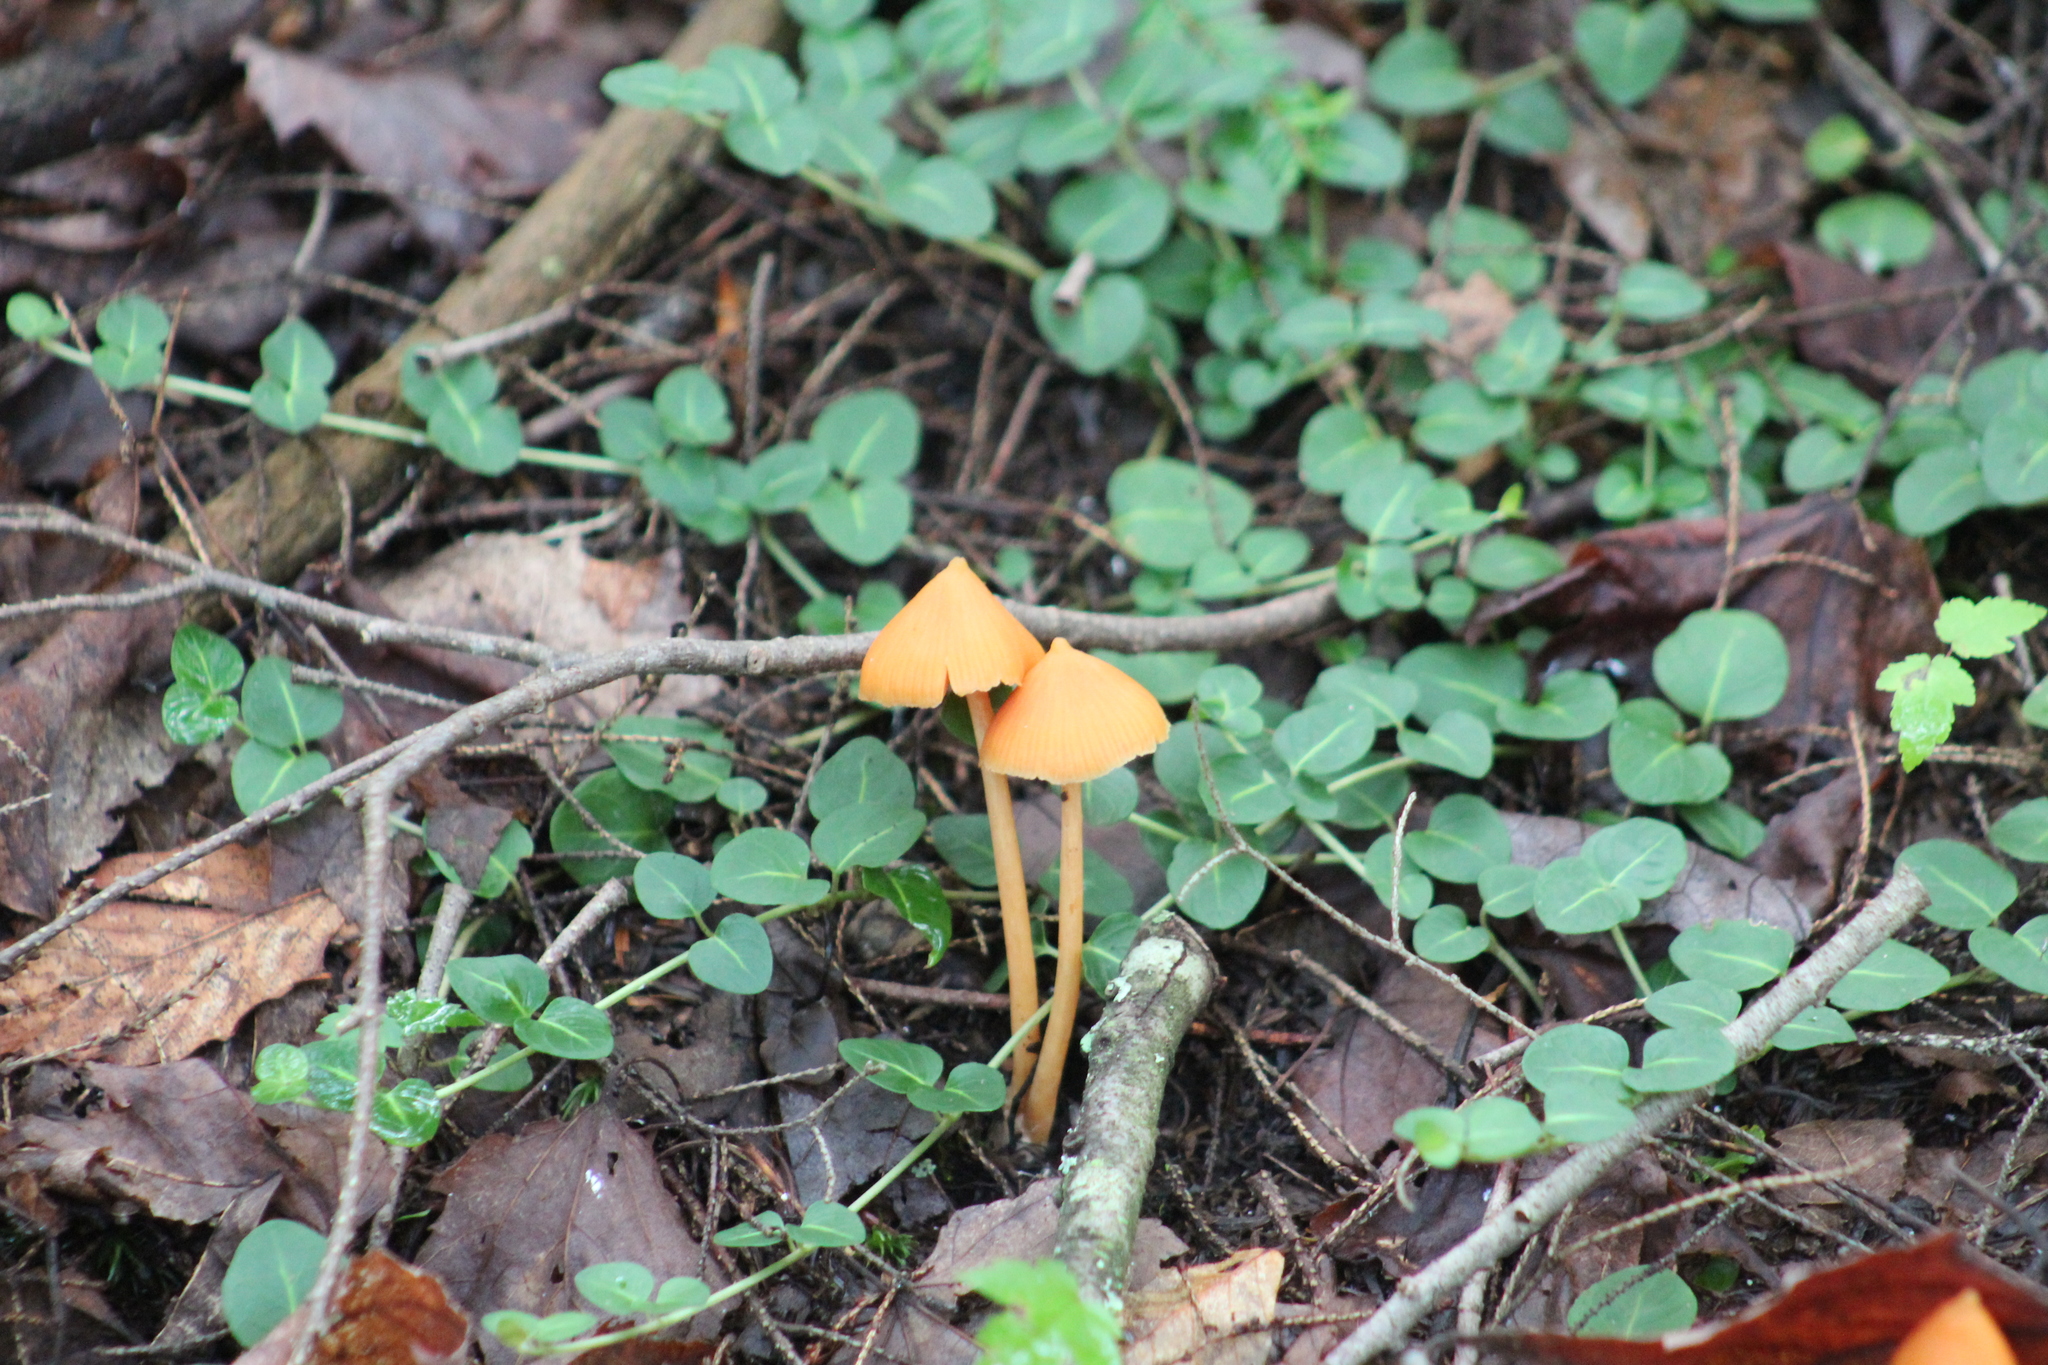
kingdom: Fungi
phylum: Basidiomycota
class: Agaricomycetes
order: Agaricales
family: Entolomataceae
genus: Entoloma
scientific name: Entoloma quadratum
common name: Salmon pinkgill
